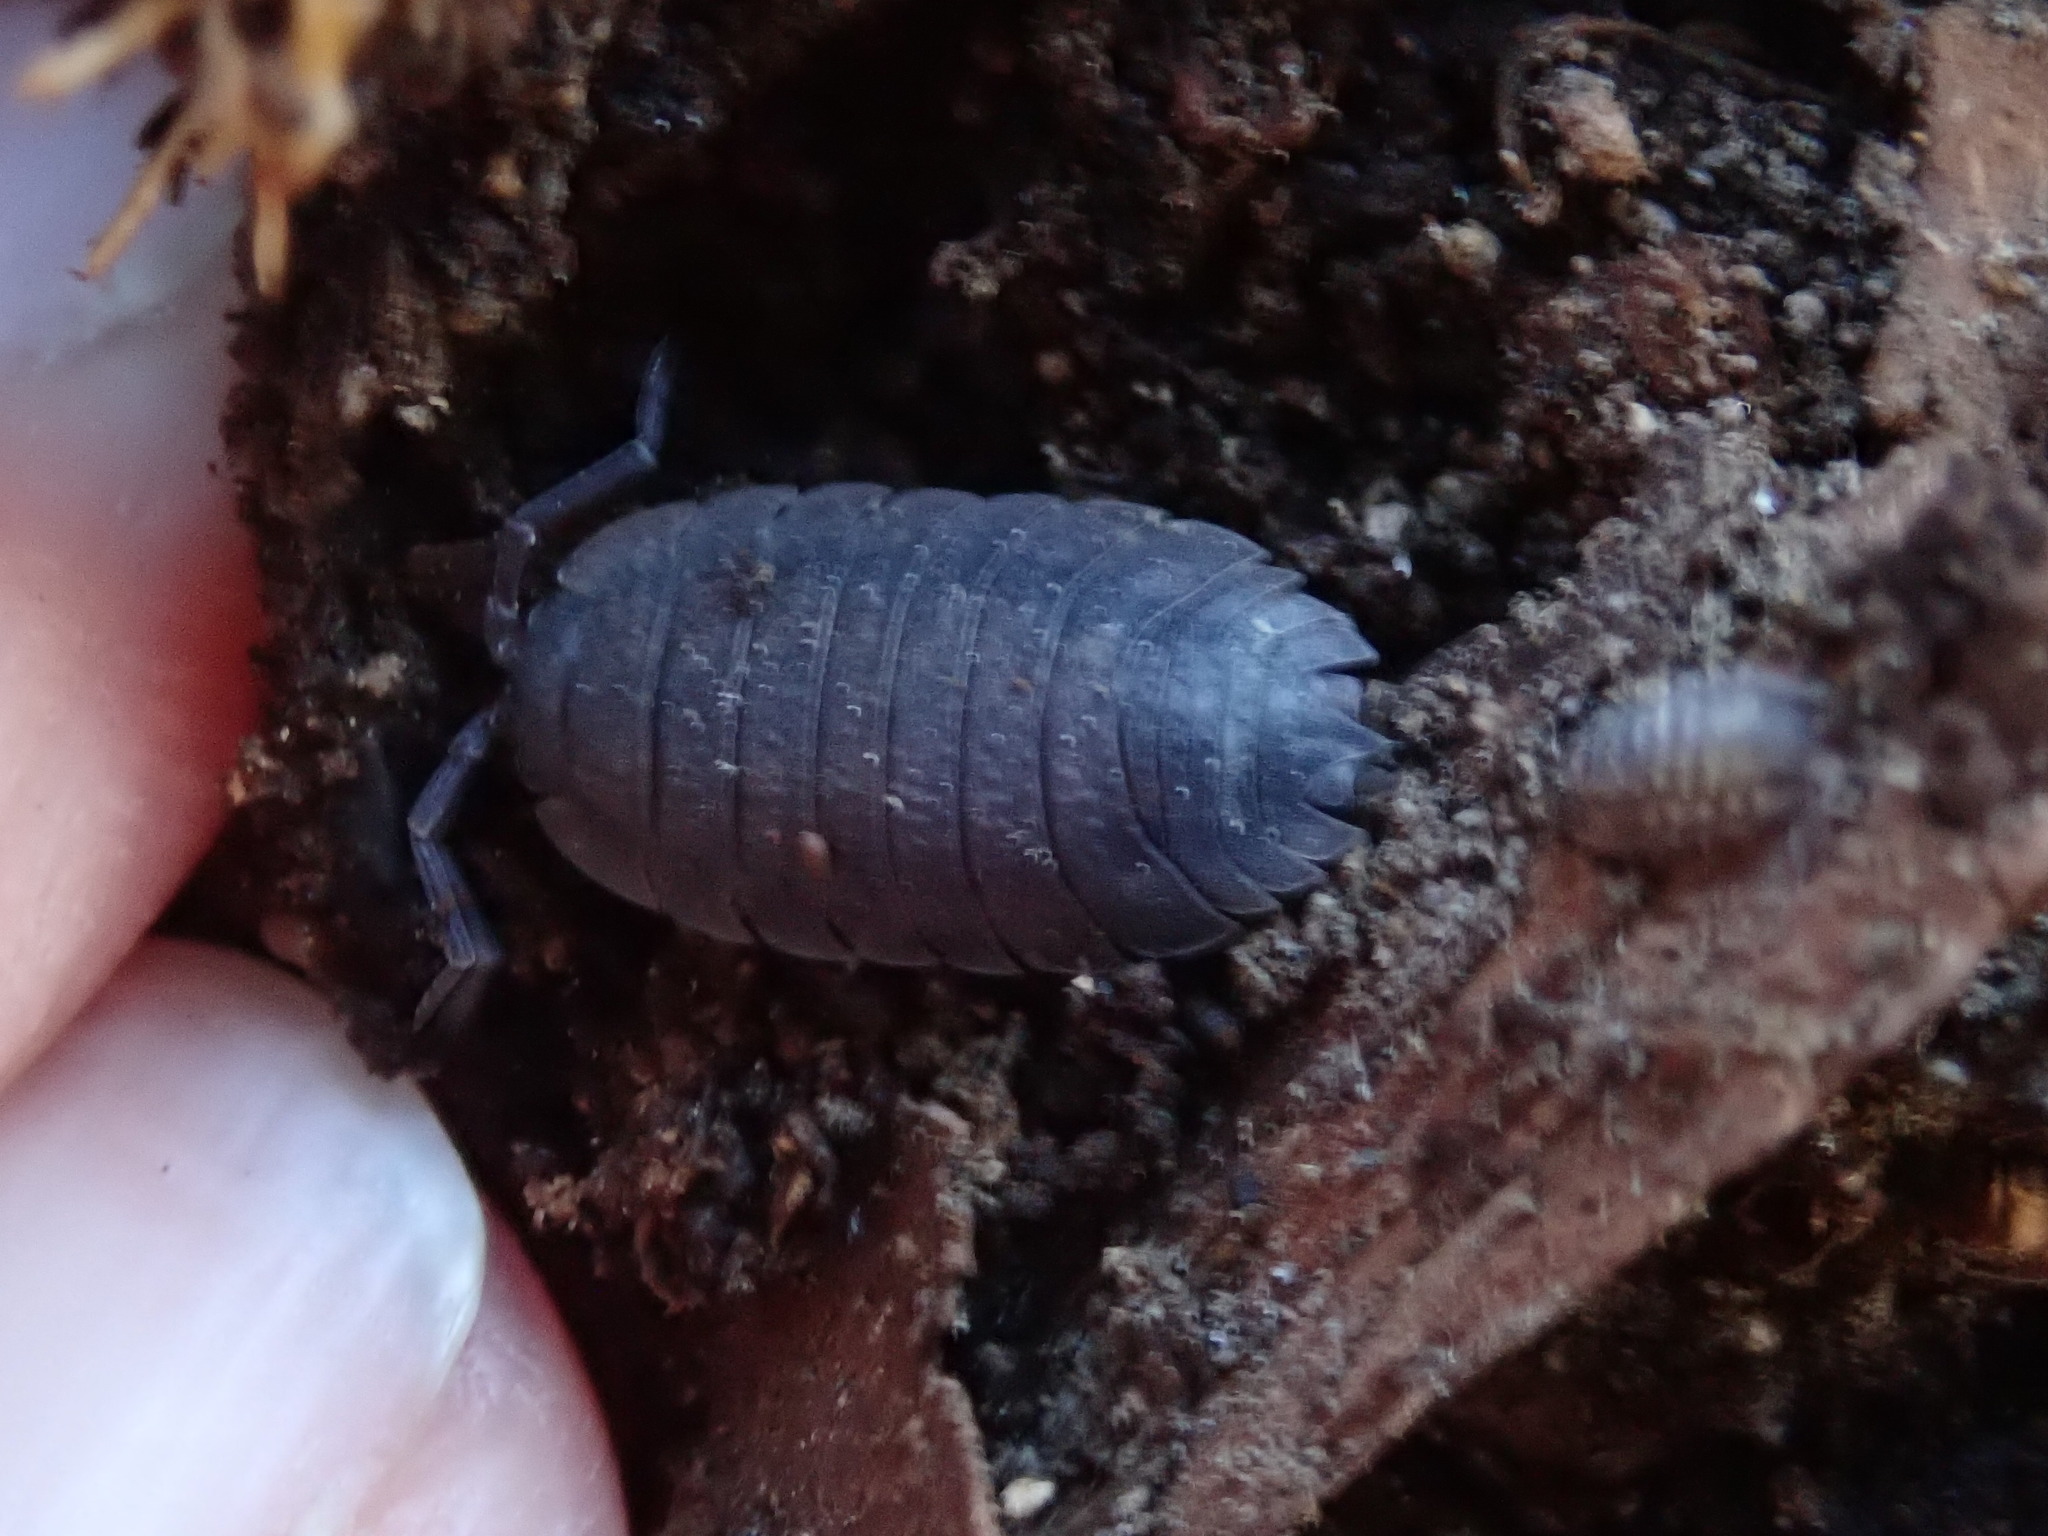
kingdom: Animalia
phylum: Arthropoda
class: Malacostraca
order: Isopoda
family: Porcellionidae
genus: Porcellio
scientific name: Porcellio scaber
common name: Common rough woodlouse
